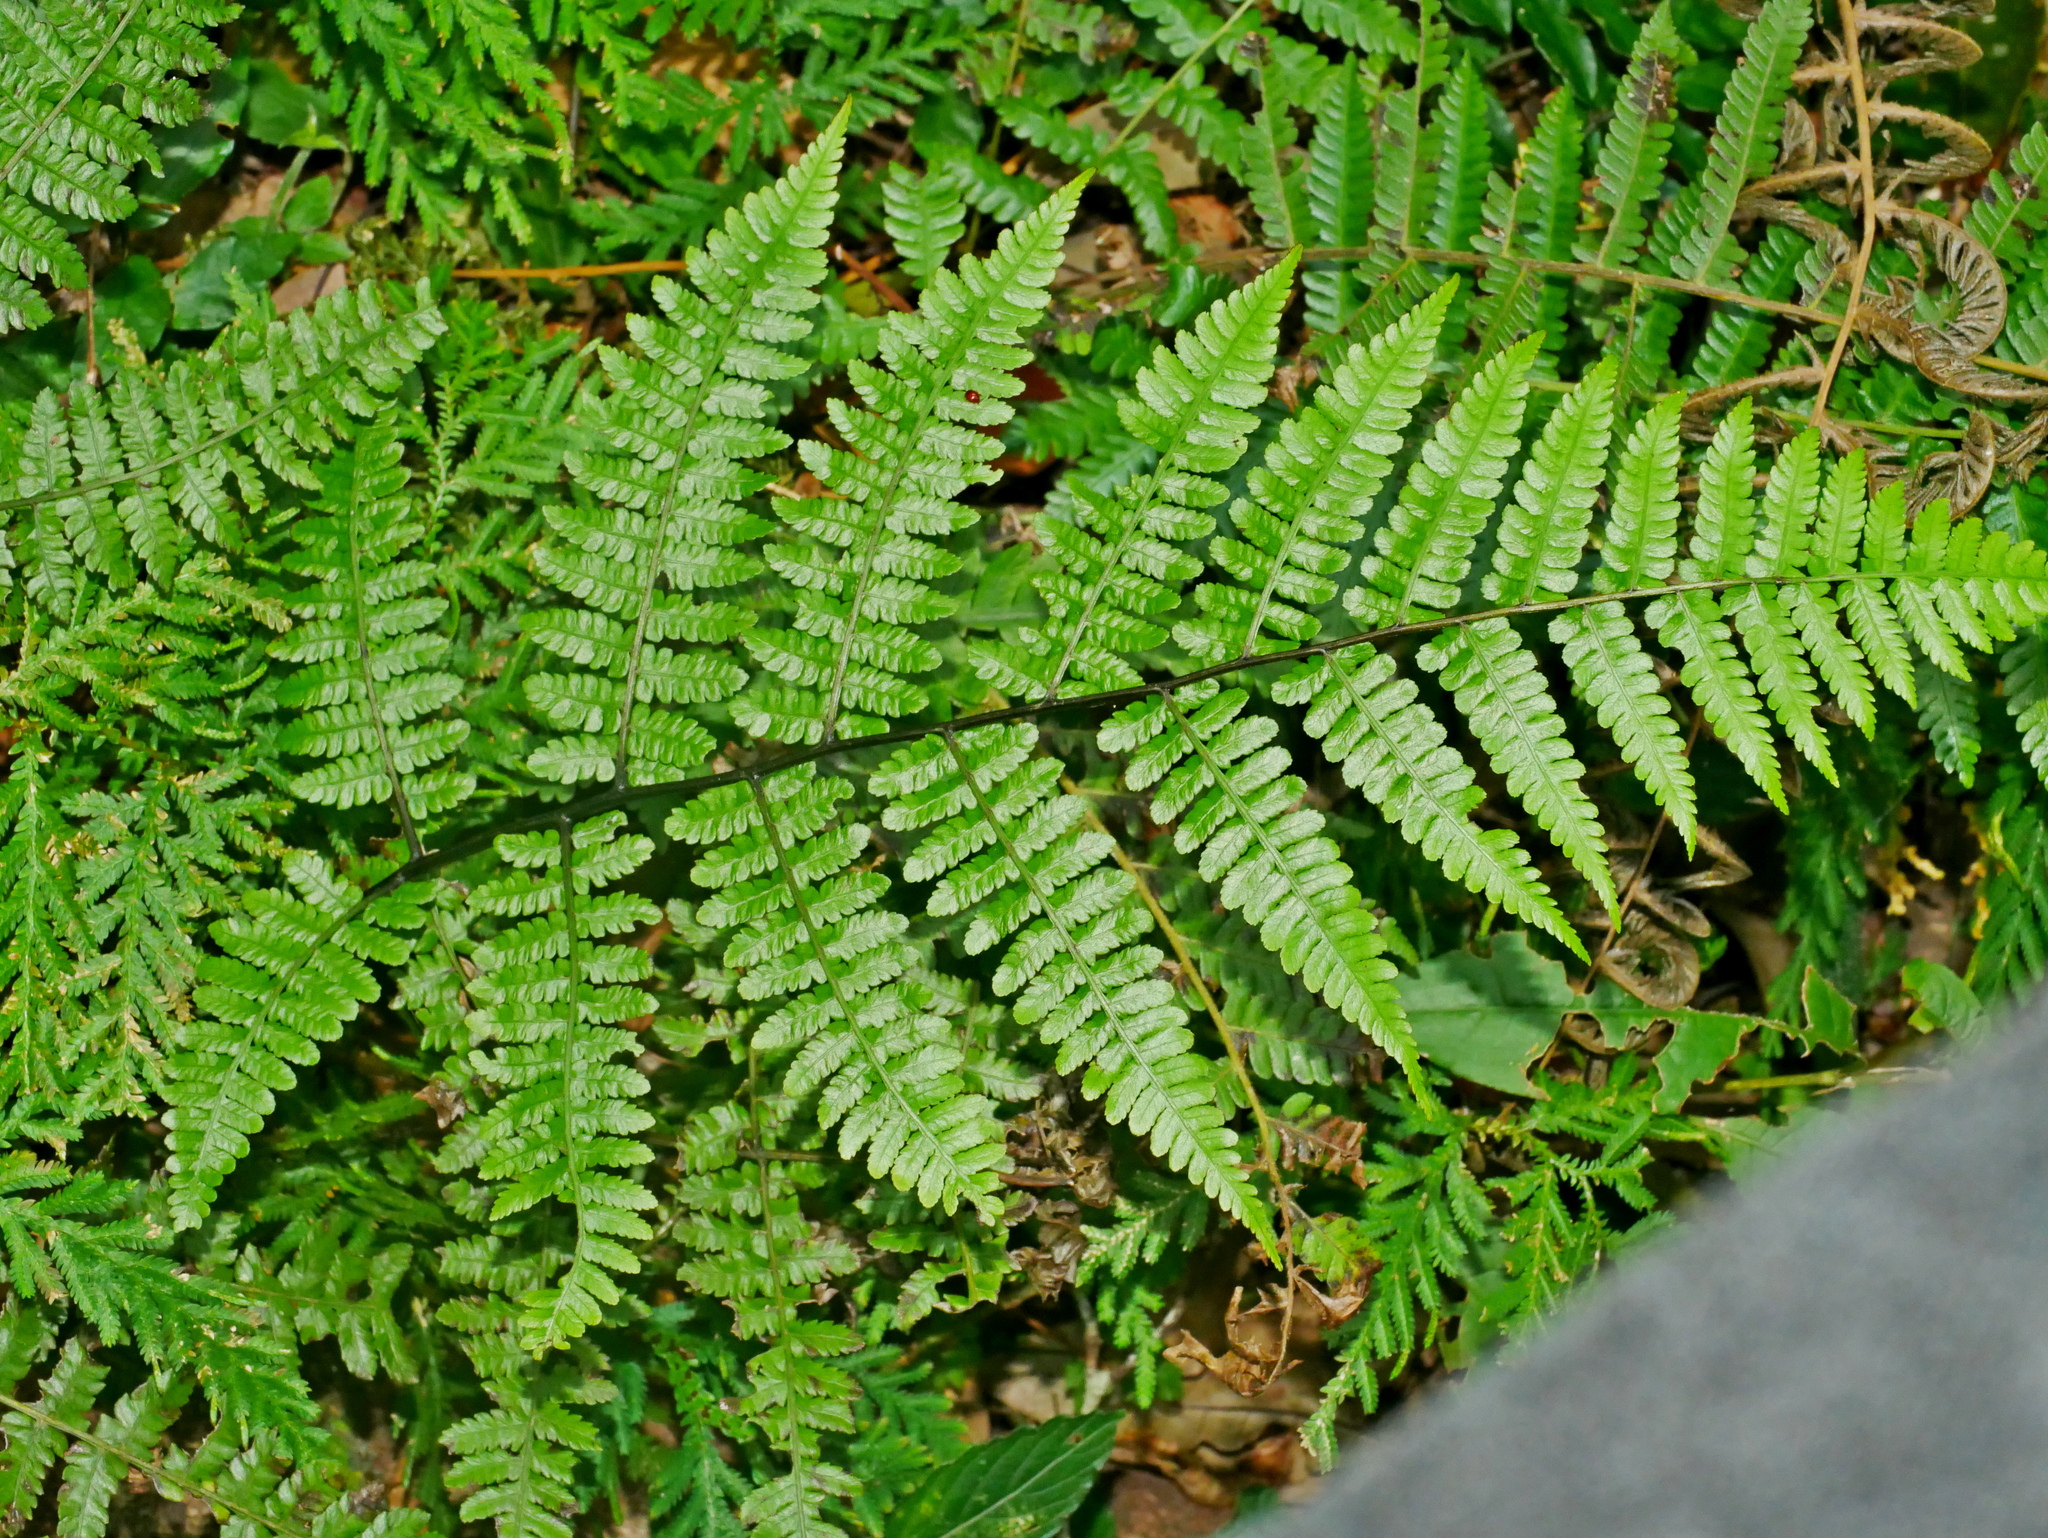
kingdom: Plantae
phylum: Tracheophyta
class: Polypodiopsida
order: Polypodiales
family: Athyriaceae
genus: Diplazium
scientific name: Diplazium laxifrons
